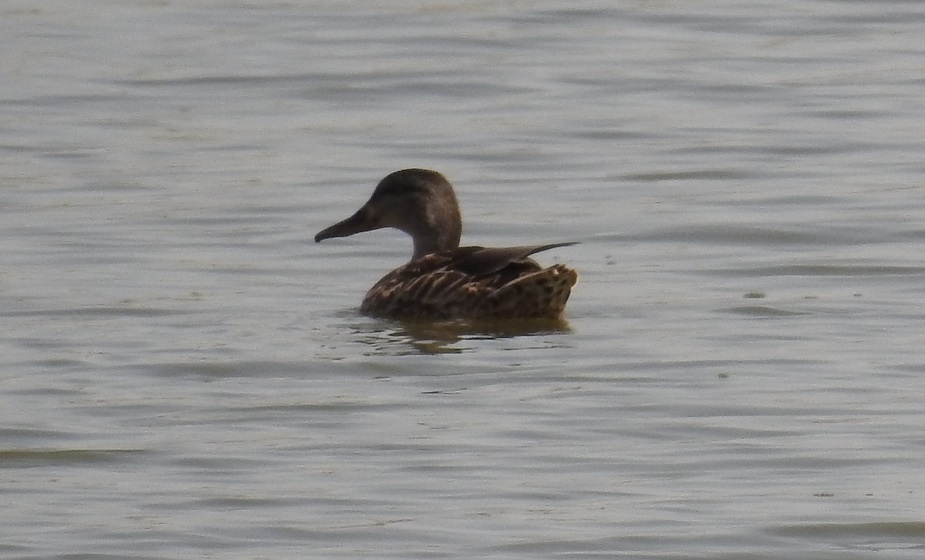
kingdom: Animalia
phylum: Chordata
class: Aves
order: Anseriformes
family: Anatidae
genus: Anas
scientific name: Anas platyrhynchos
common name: Mallard
